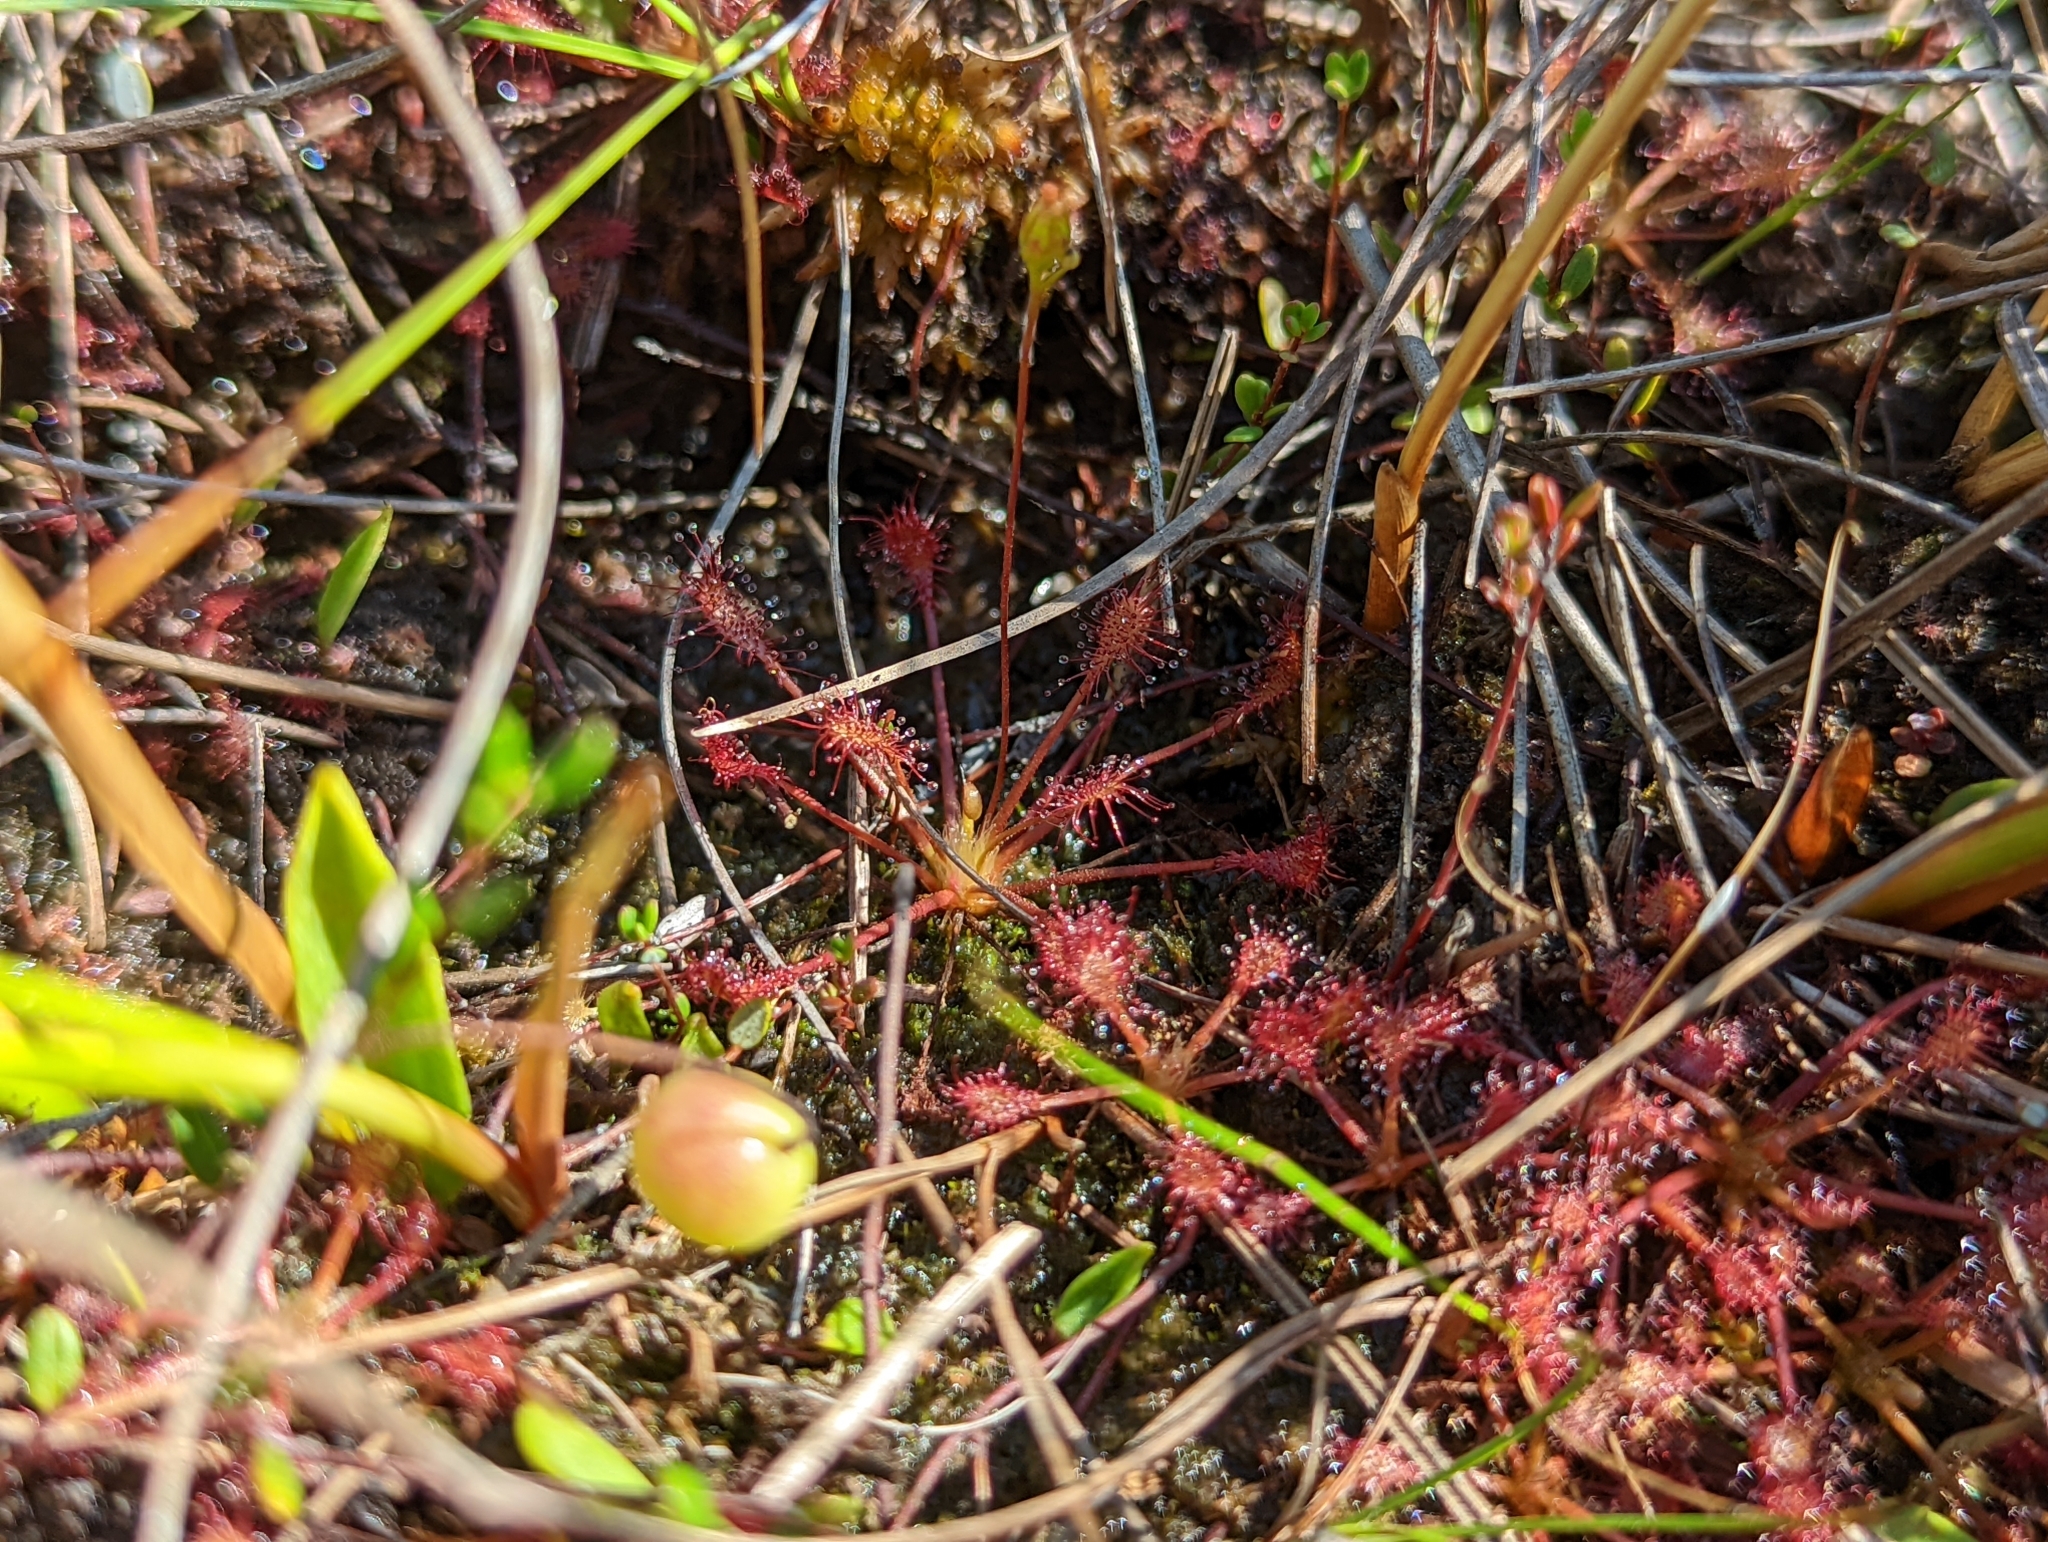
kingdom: Plantae
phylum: Tracheophyta
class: Magnoliopsida
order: Caryophyllales
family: Droseraceae
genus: Drosera
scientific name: Drosera intermedia
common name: Oblong-leaved sundew
